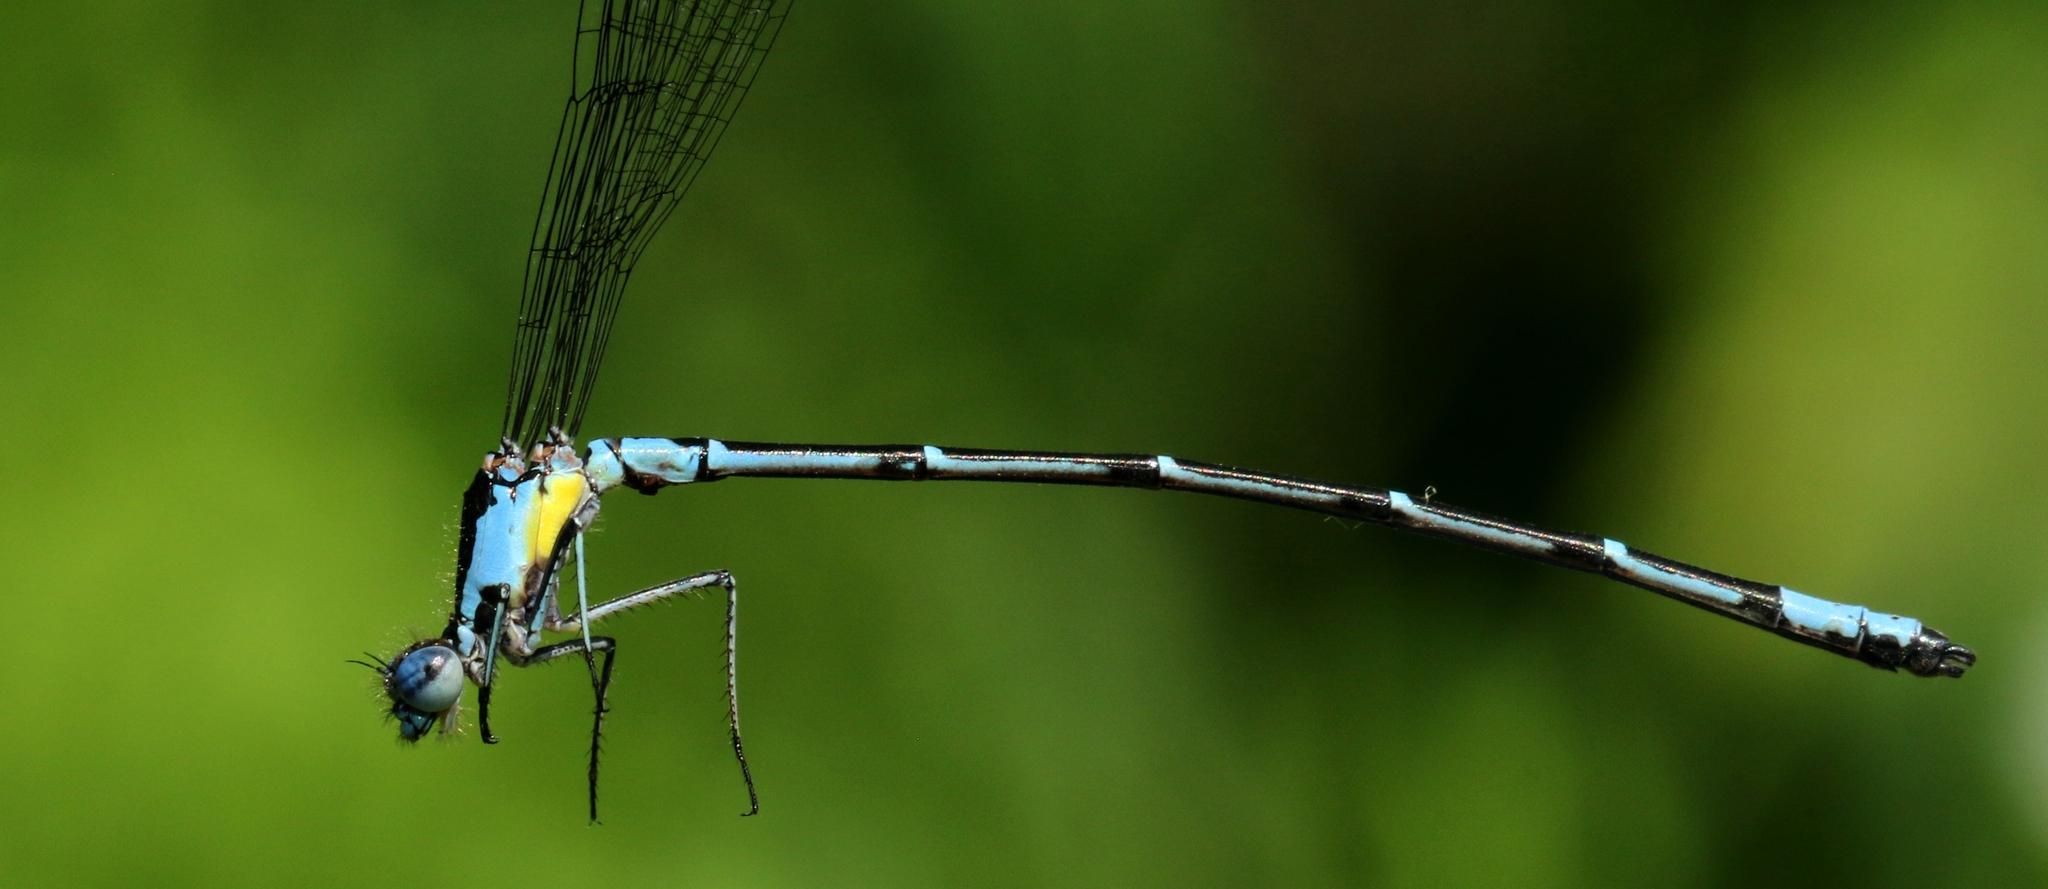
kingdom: Animalia
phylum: Arthropoda
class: Insecta
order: Odonata
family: Coenagrionidae
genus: Chromagrion
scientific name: Chromagrion conditum
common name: Aurora damsel
